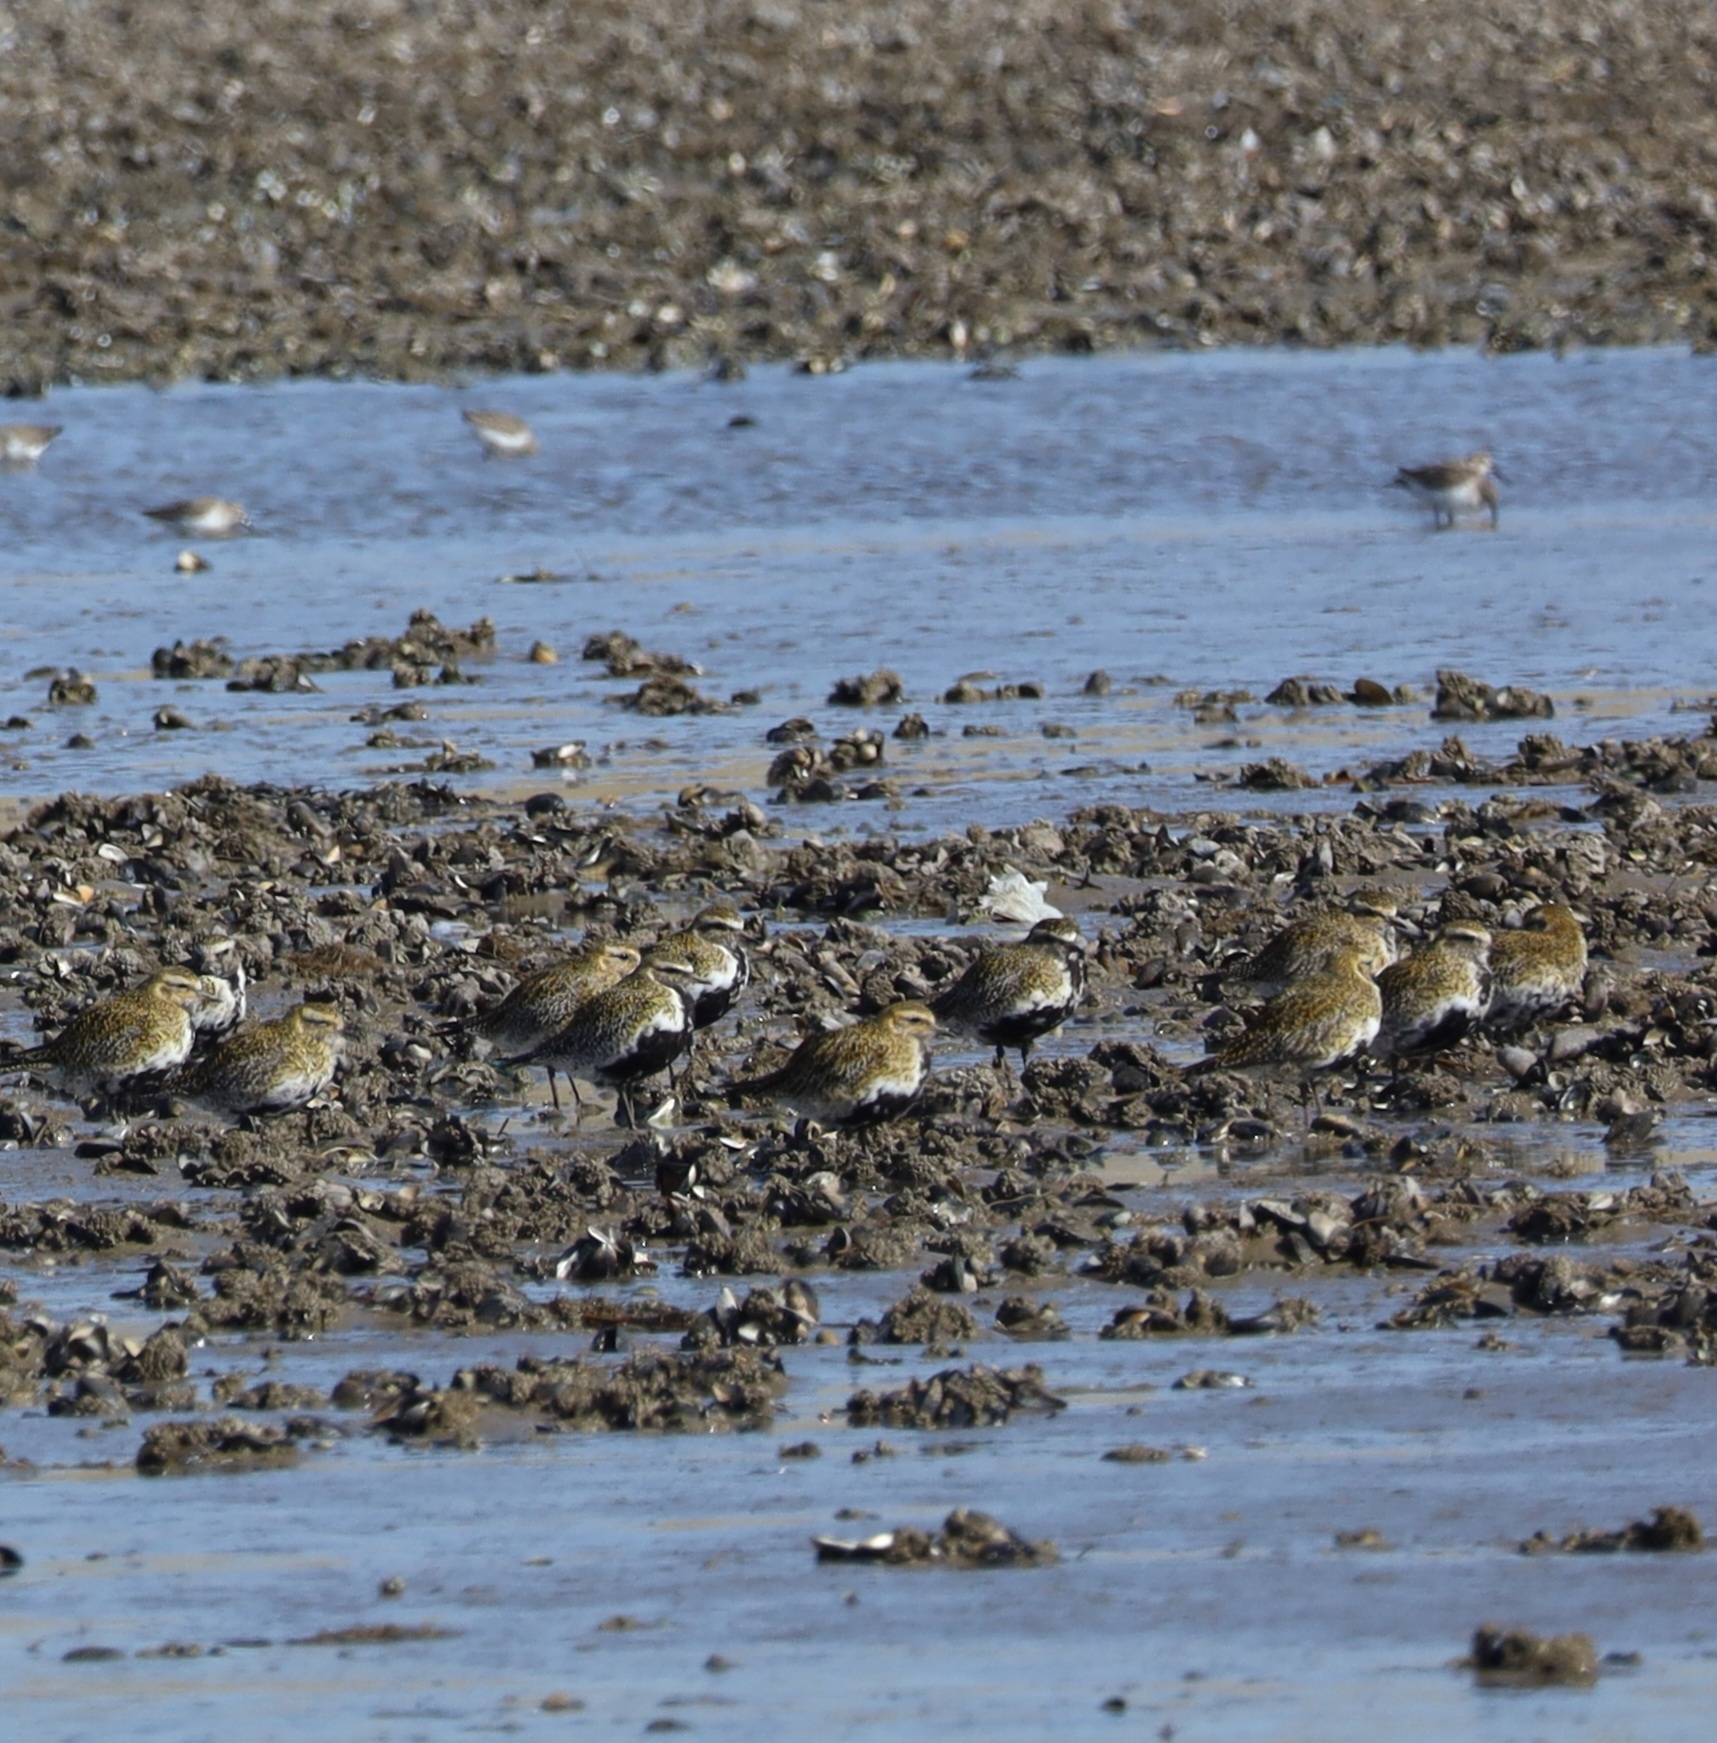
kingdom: Animalia
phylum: Chordata
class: Aves
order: Charadriiformes
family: Charadriidae
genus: Pluvialis
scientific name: Pluvialis apricaria
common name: European golden plover
